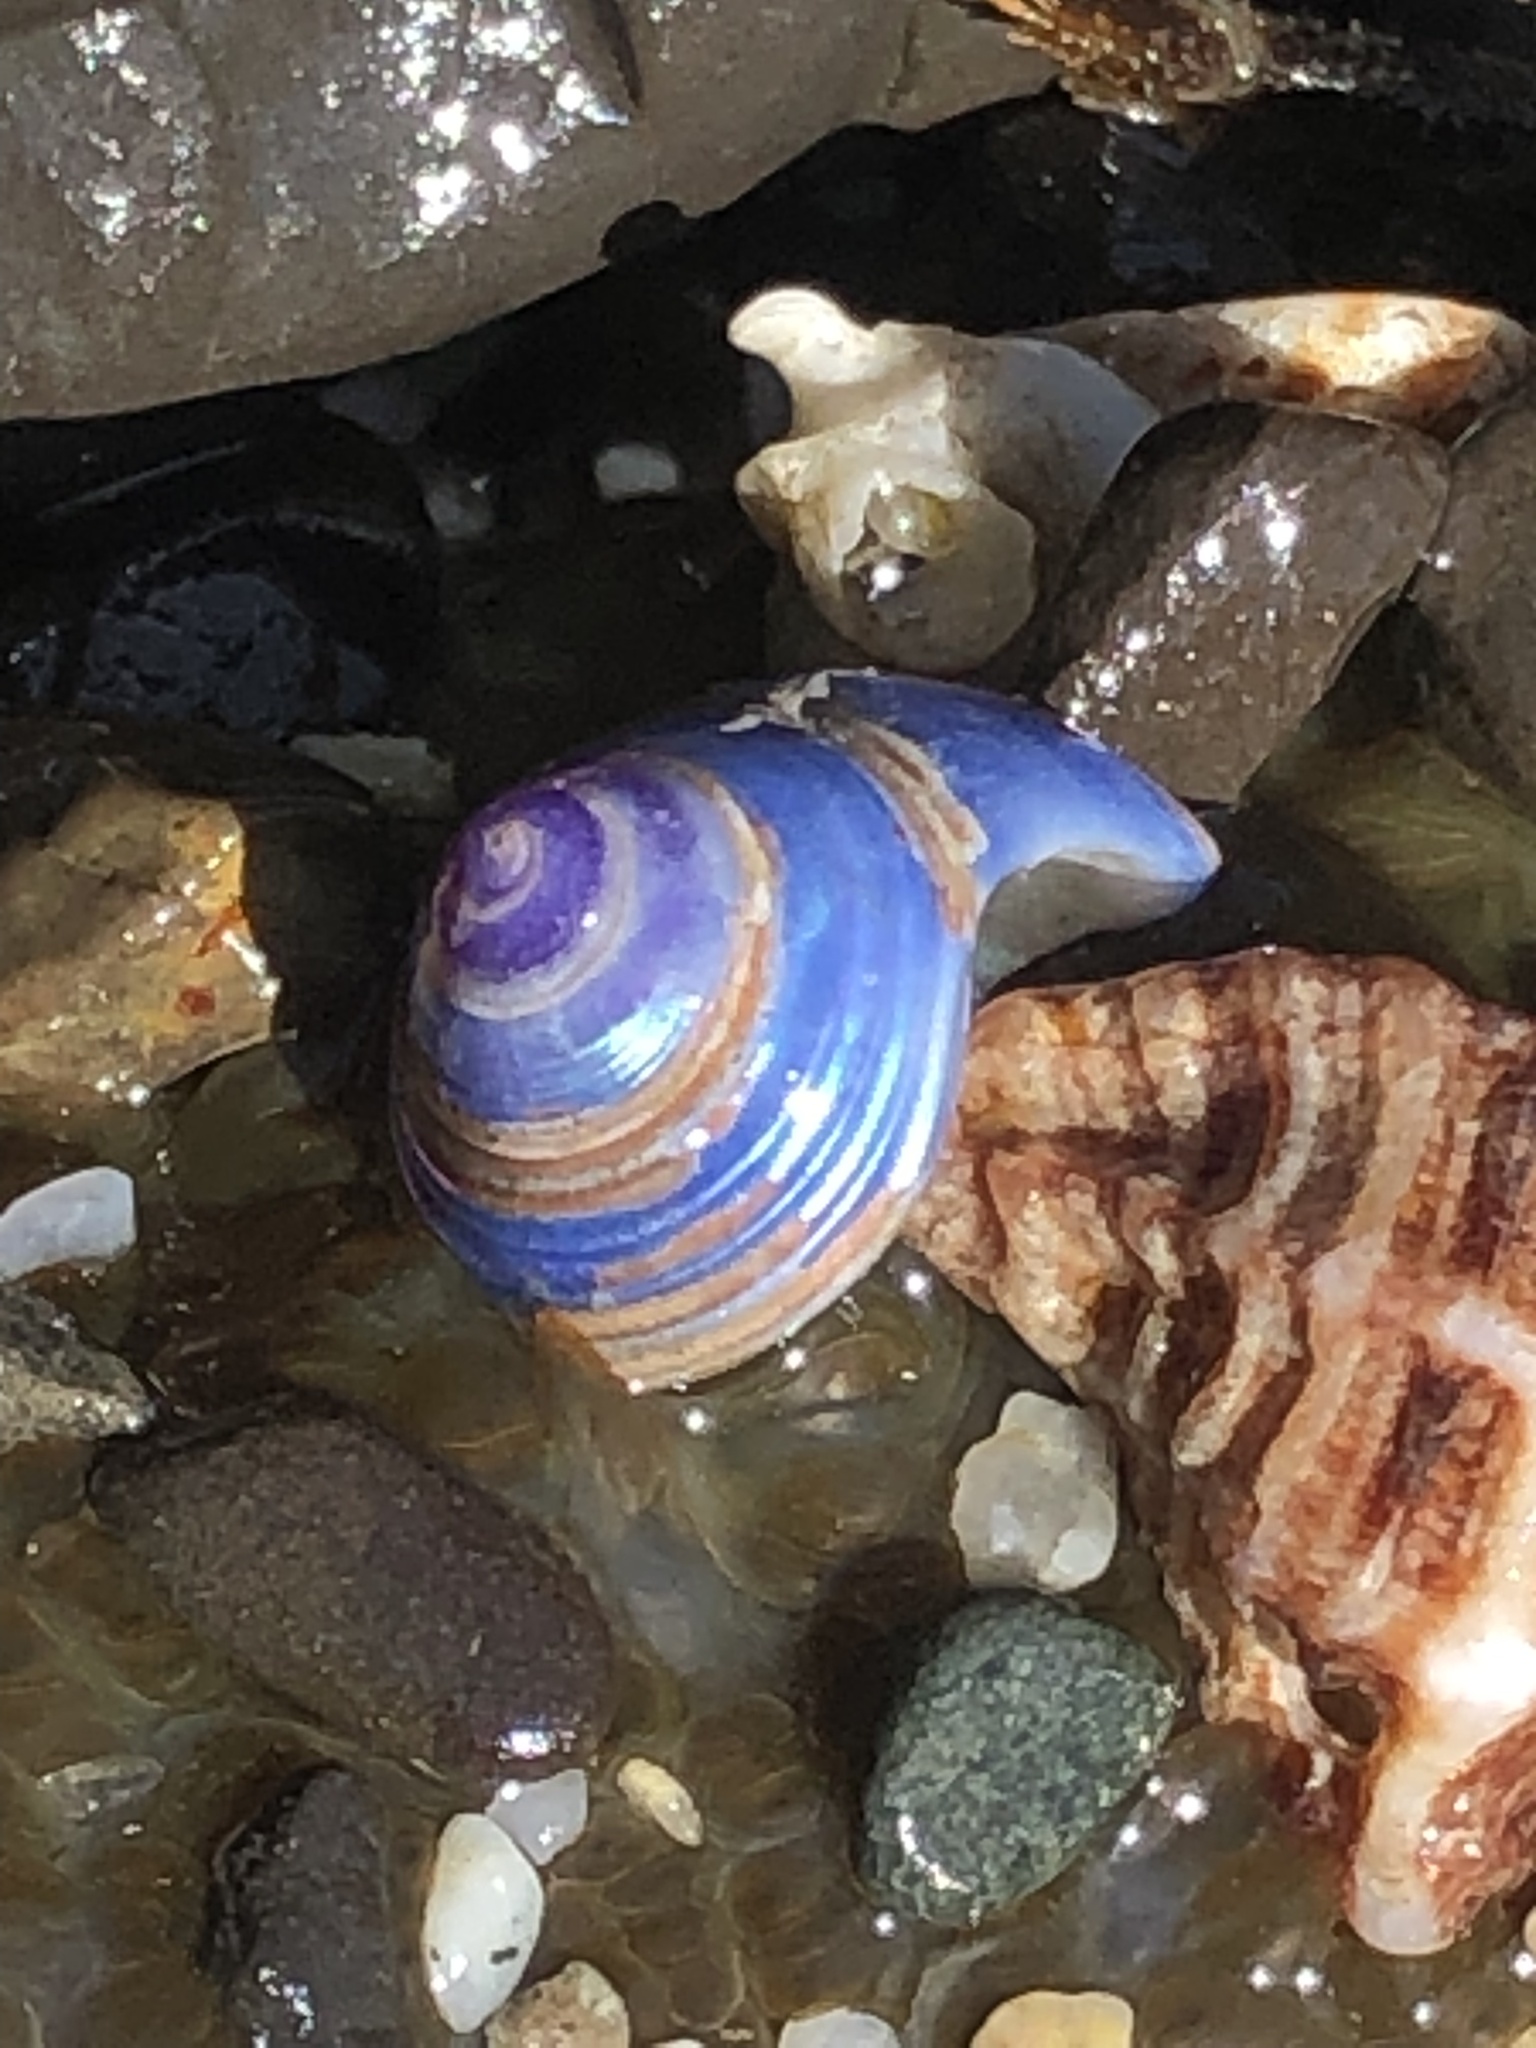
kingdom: Animalia
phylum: Mollusca
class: Gastropoda
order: Trochida
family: Calliostomatidae
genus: Calliostoma
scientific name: Calliostoma ligatum
